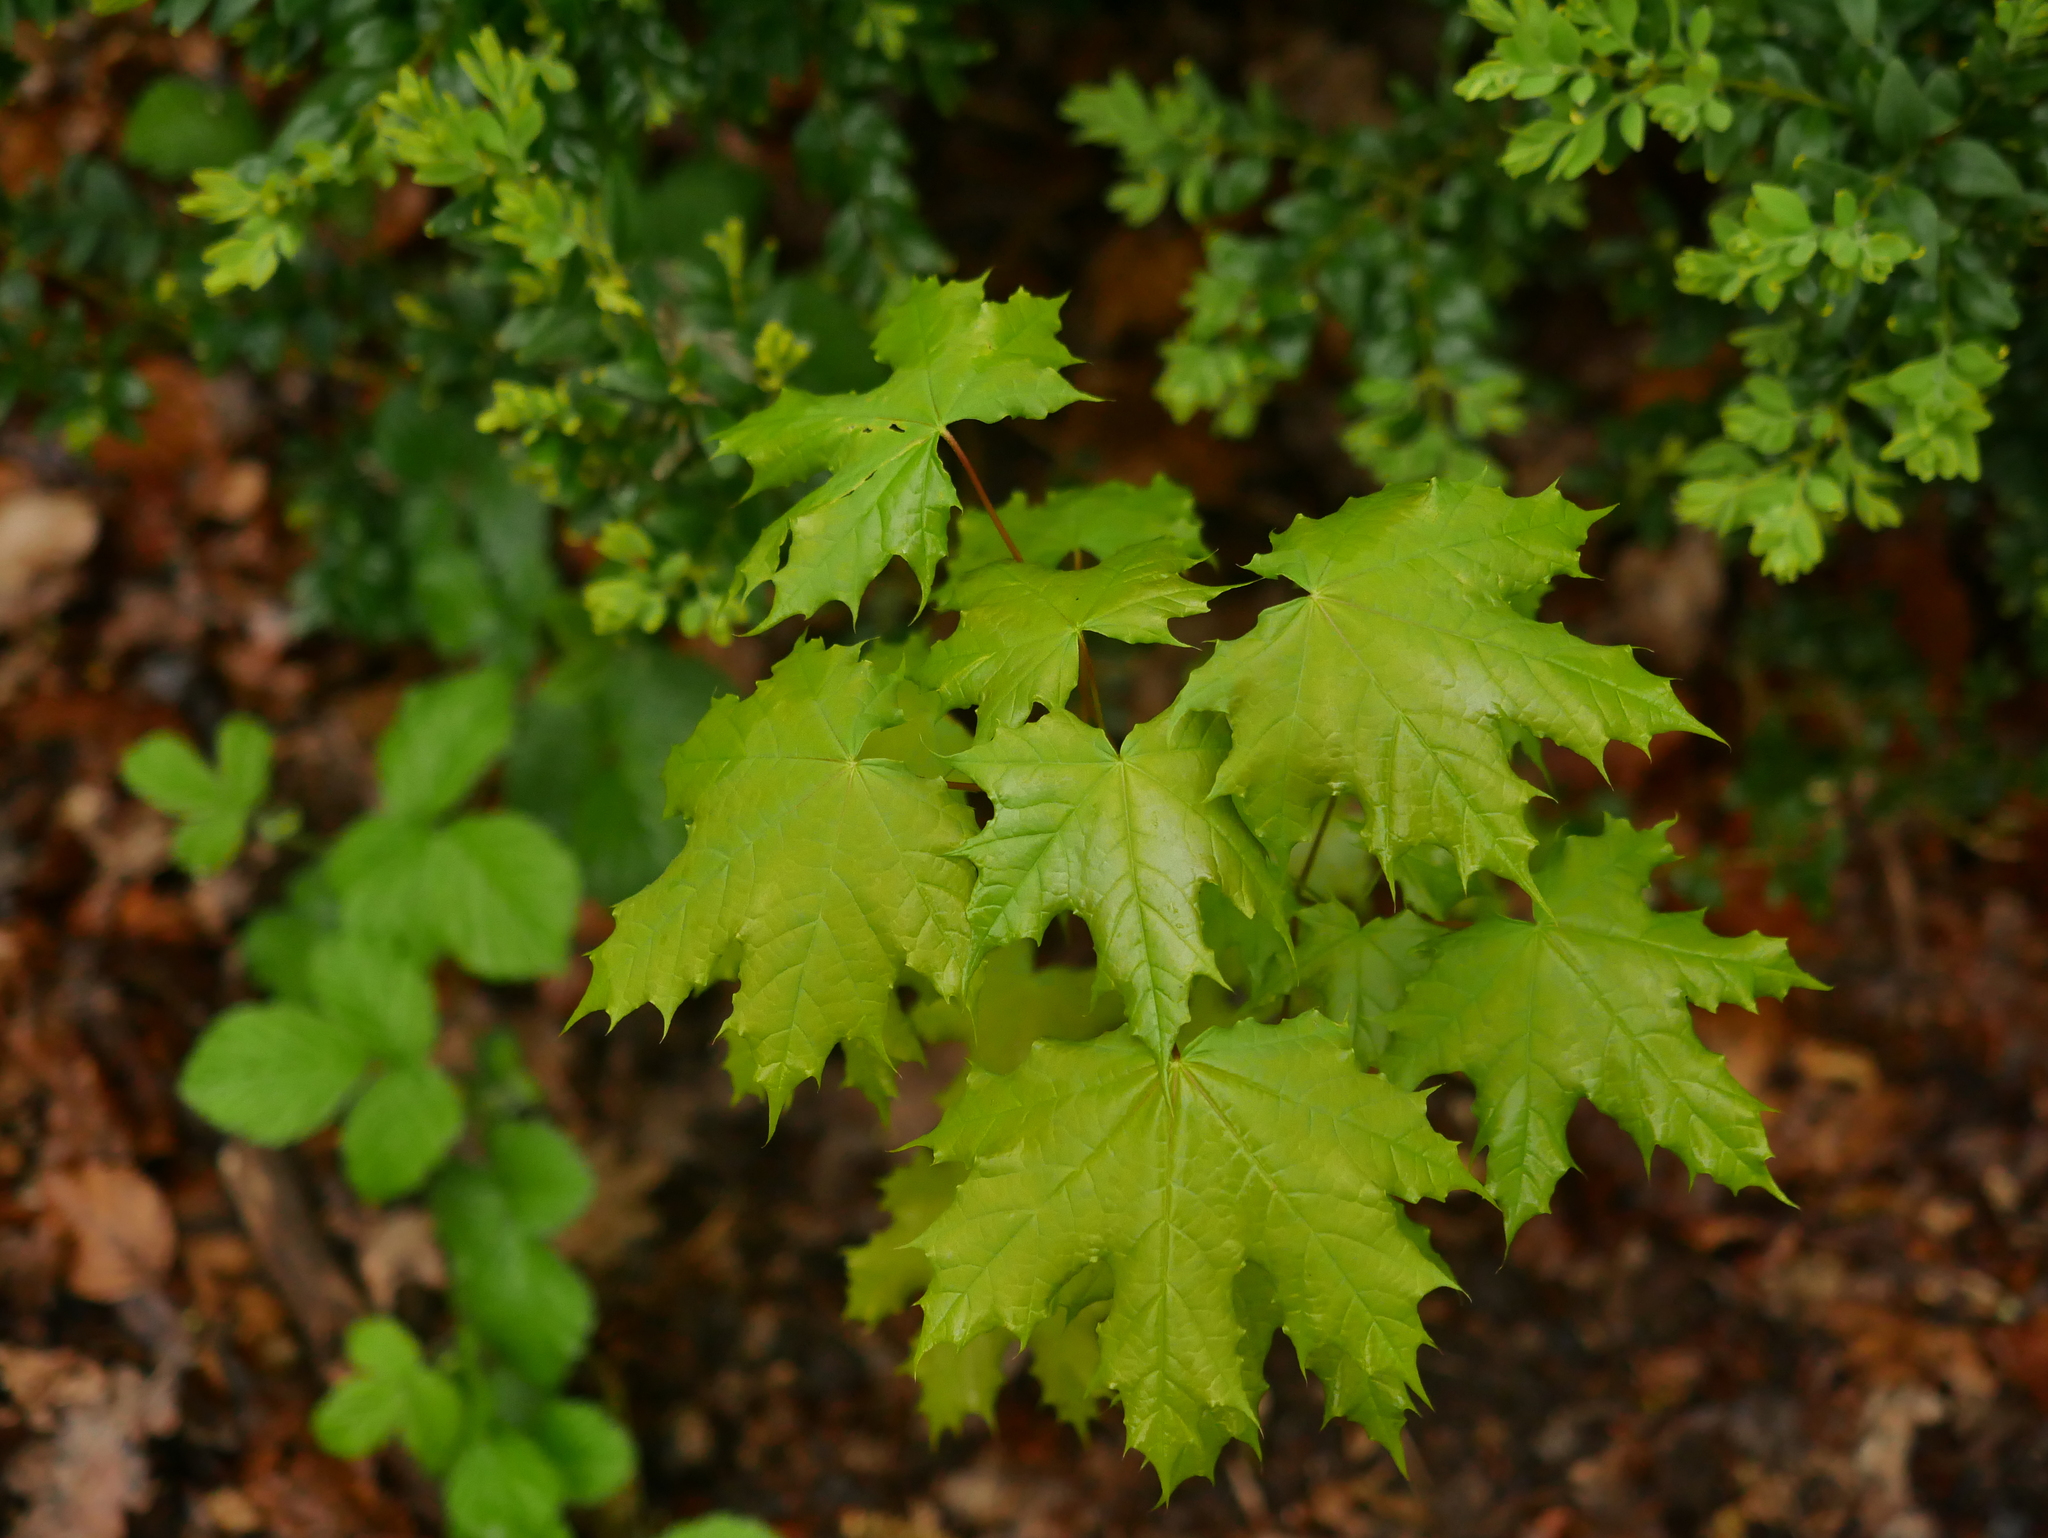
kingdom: Plantae
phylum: Tracheophyta
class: Magnoliopsida
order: Sapindales
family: Sapindaceae
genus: Acer
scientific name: Acer platanoides
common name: Norway maple
